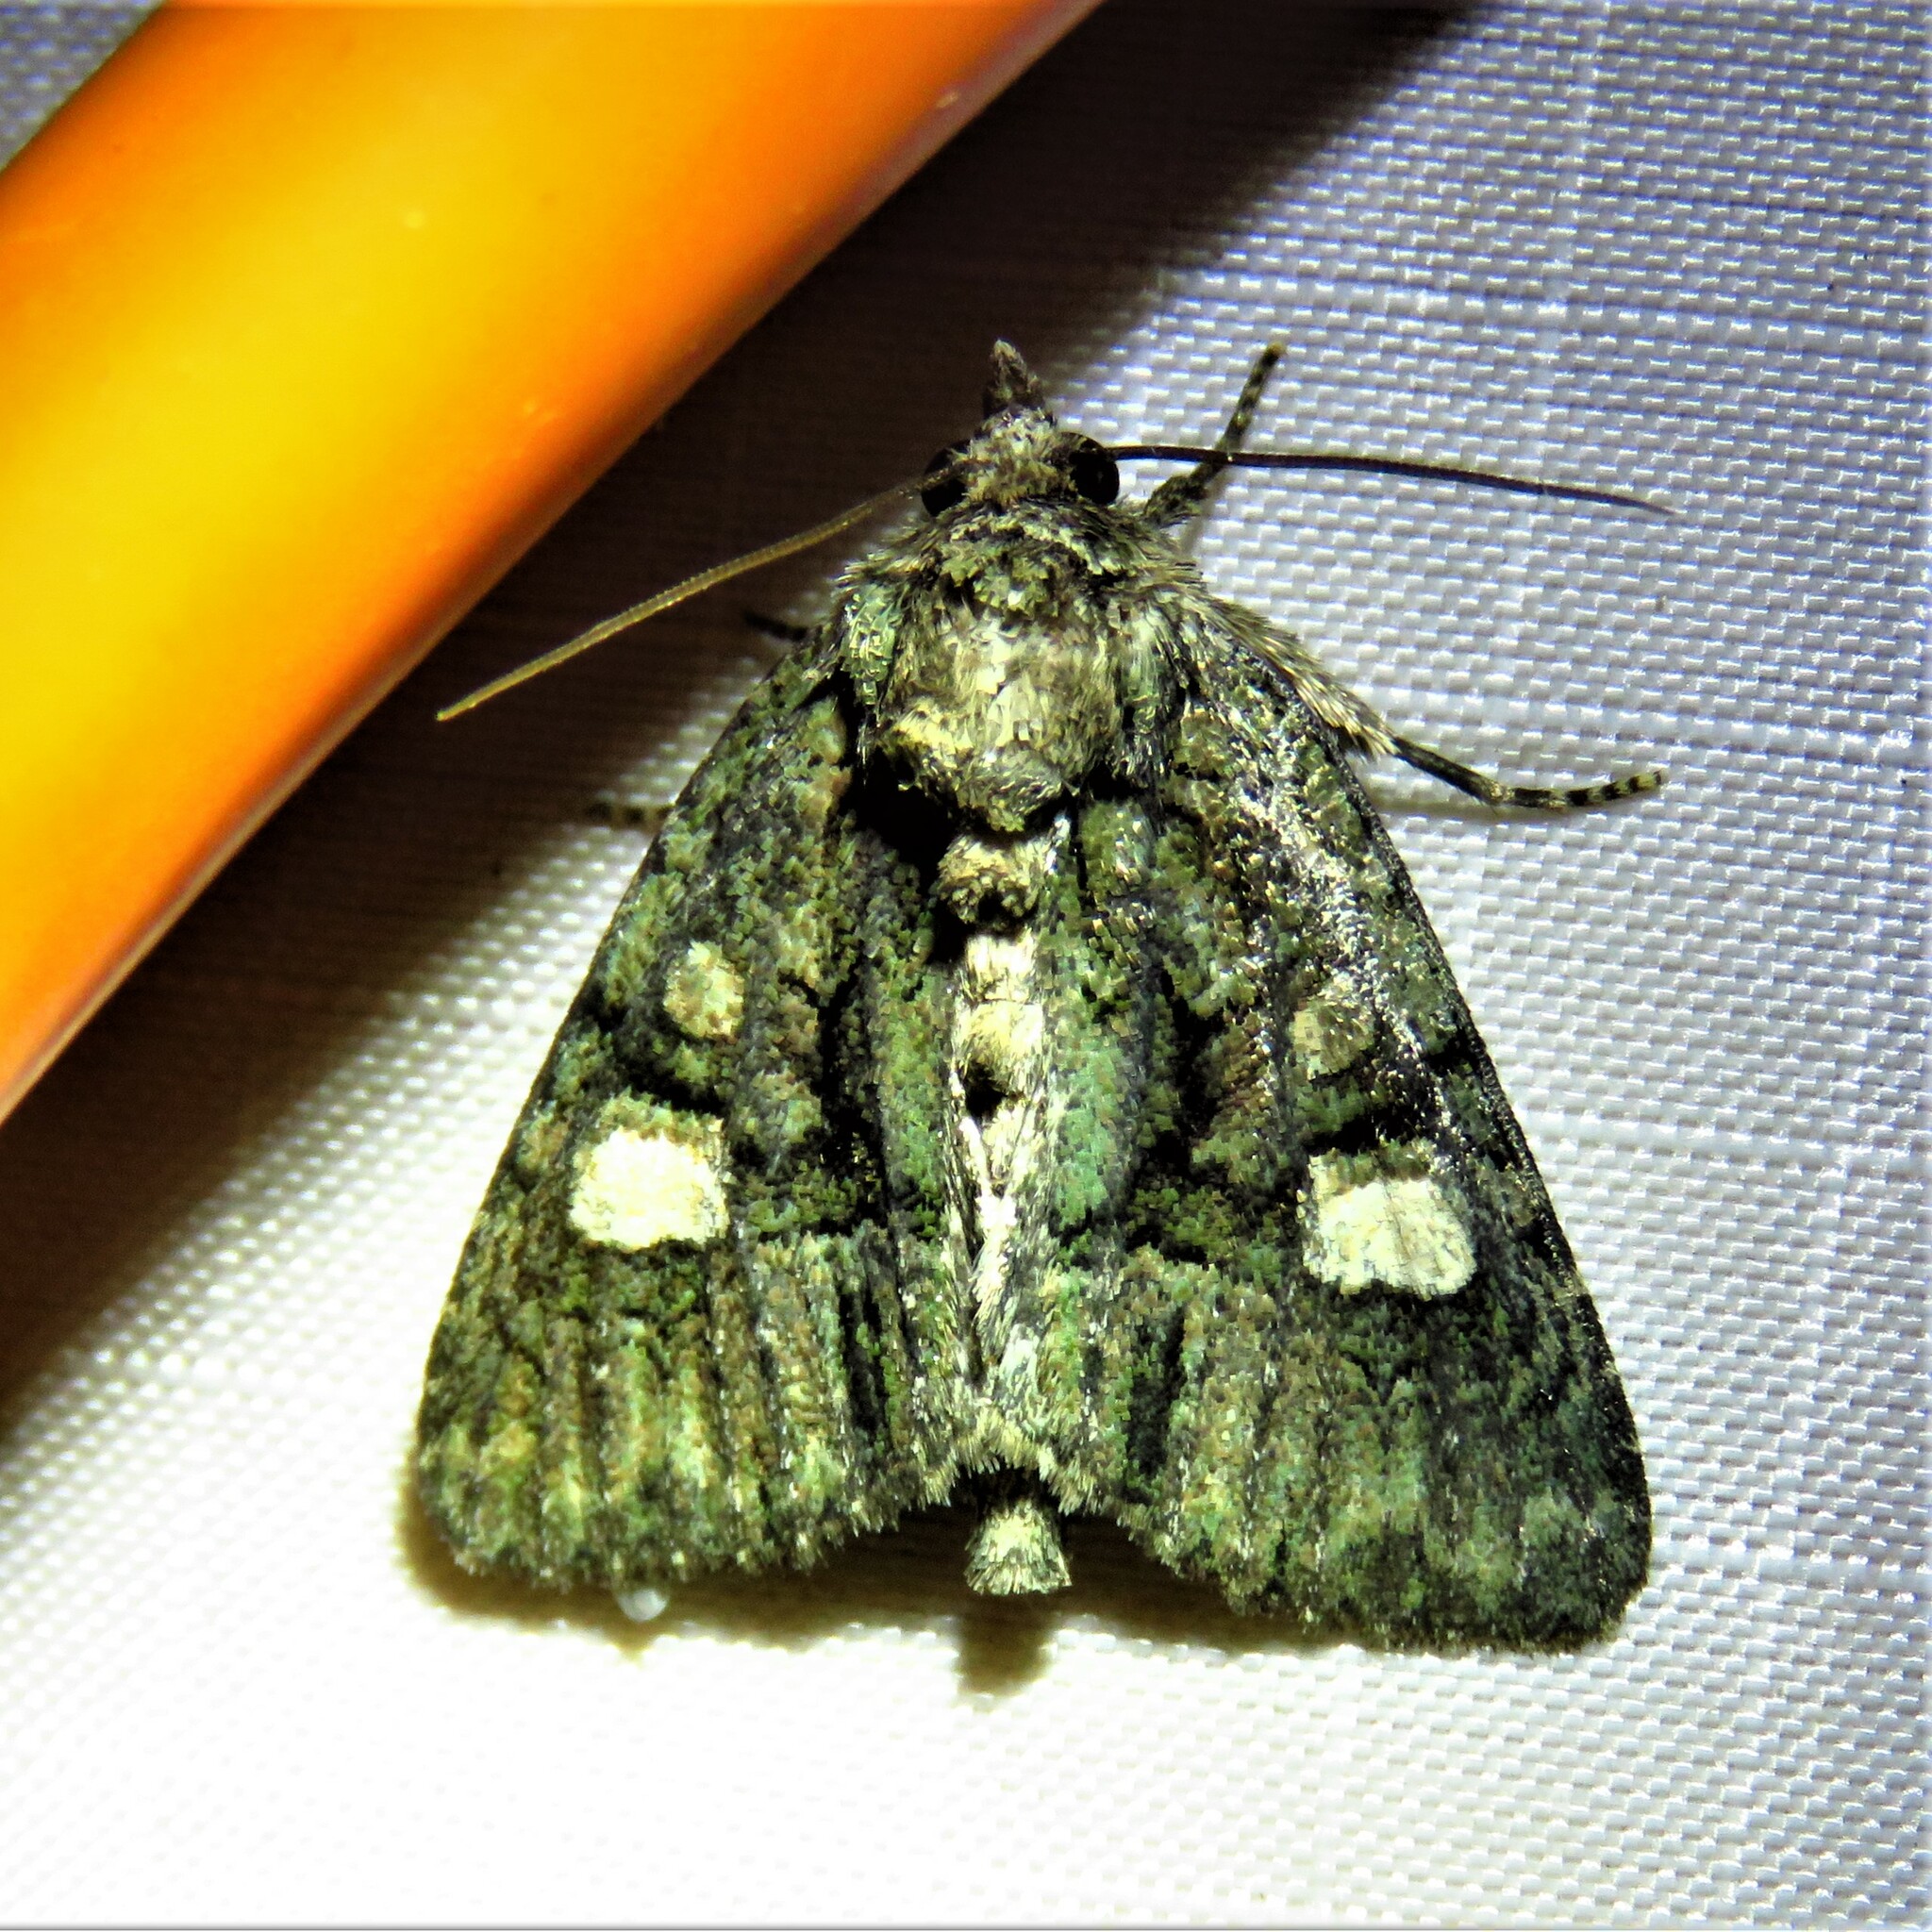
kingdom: Animalia
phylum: Arthropoda
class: Insecta
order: Lepidoptera
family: Noctuidae
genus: Phosphila
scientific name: Phosphila miselioides
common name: Spotted phosphila moth
